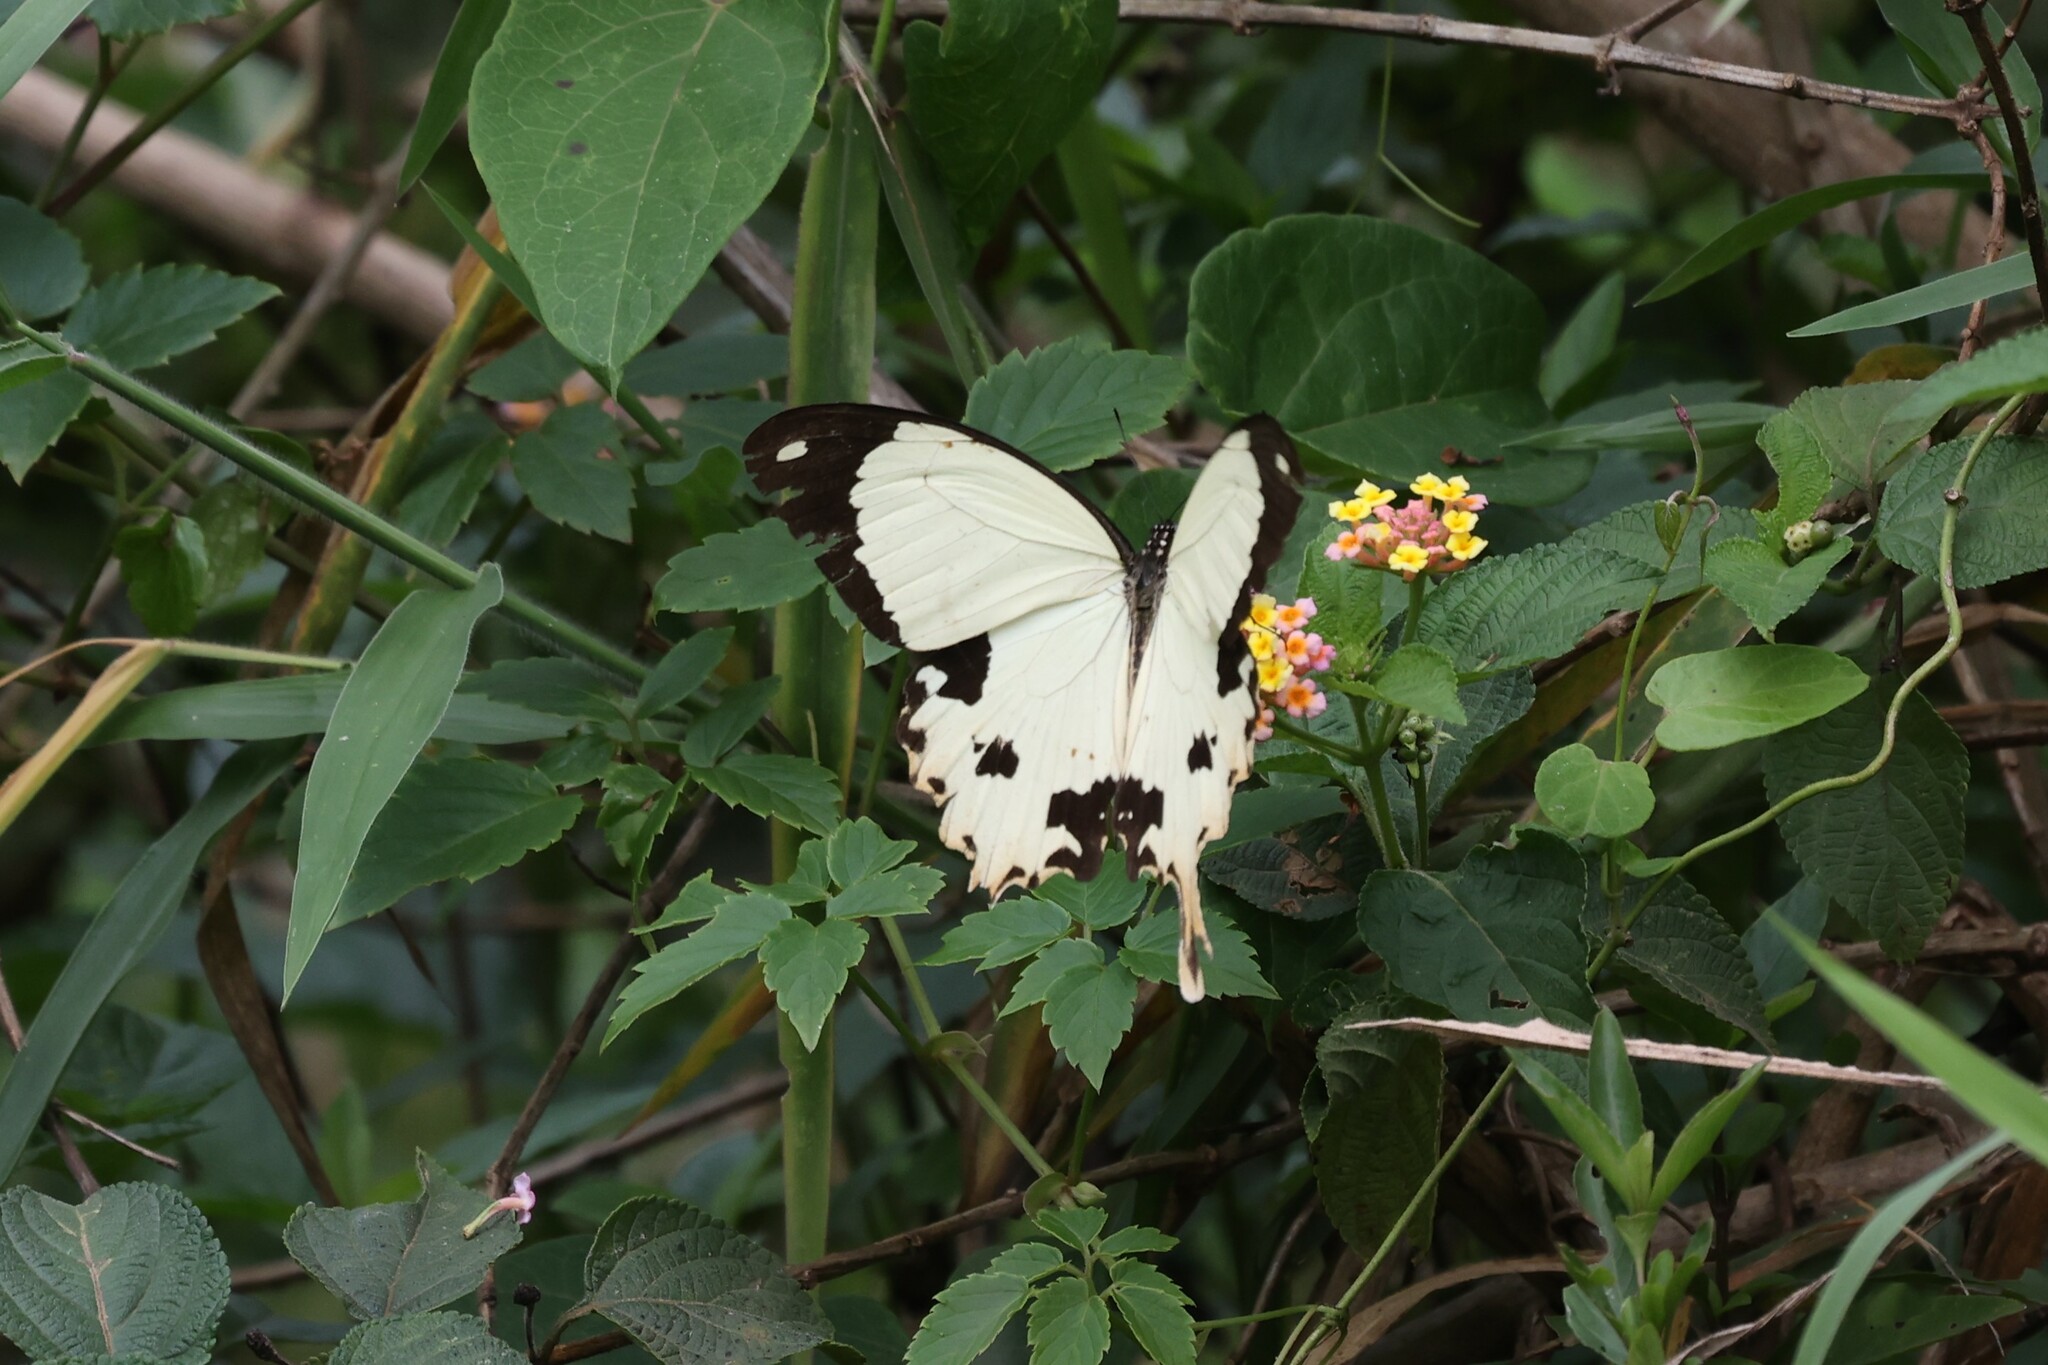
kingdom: Animalia
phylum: Arthropoda
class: Insecta
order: Lepidoptera
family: Papilionidae
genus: Papilio
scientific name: Papilio dardanus
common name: Flying handkerchief
